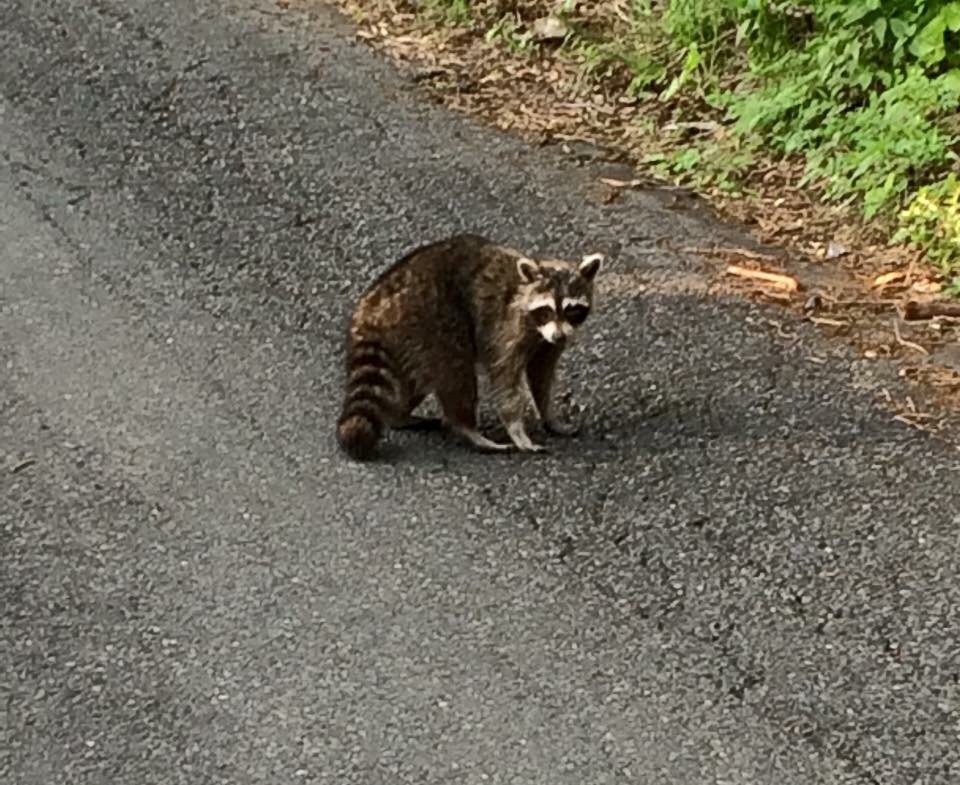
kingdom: Animalia
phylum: Chordata
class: Mammalia
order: Carnivora
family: Procyonidae
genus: Procyon
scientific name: Procyon lotor
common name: Raccoon
